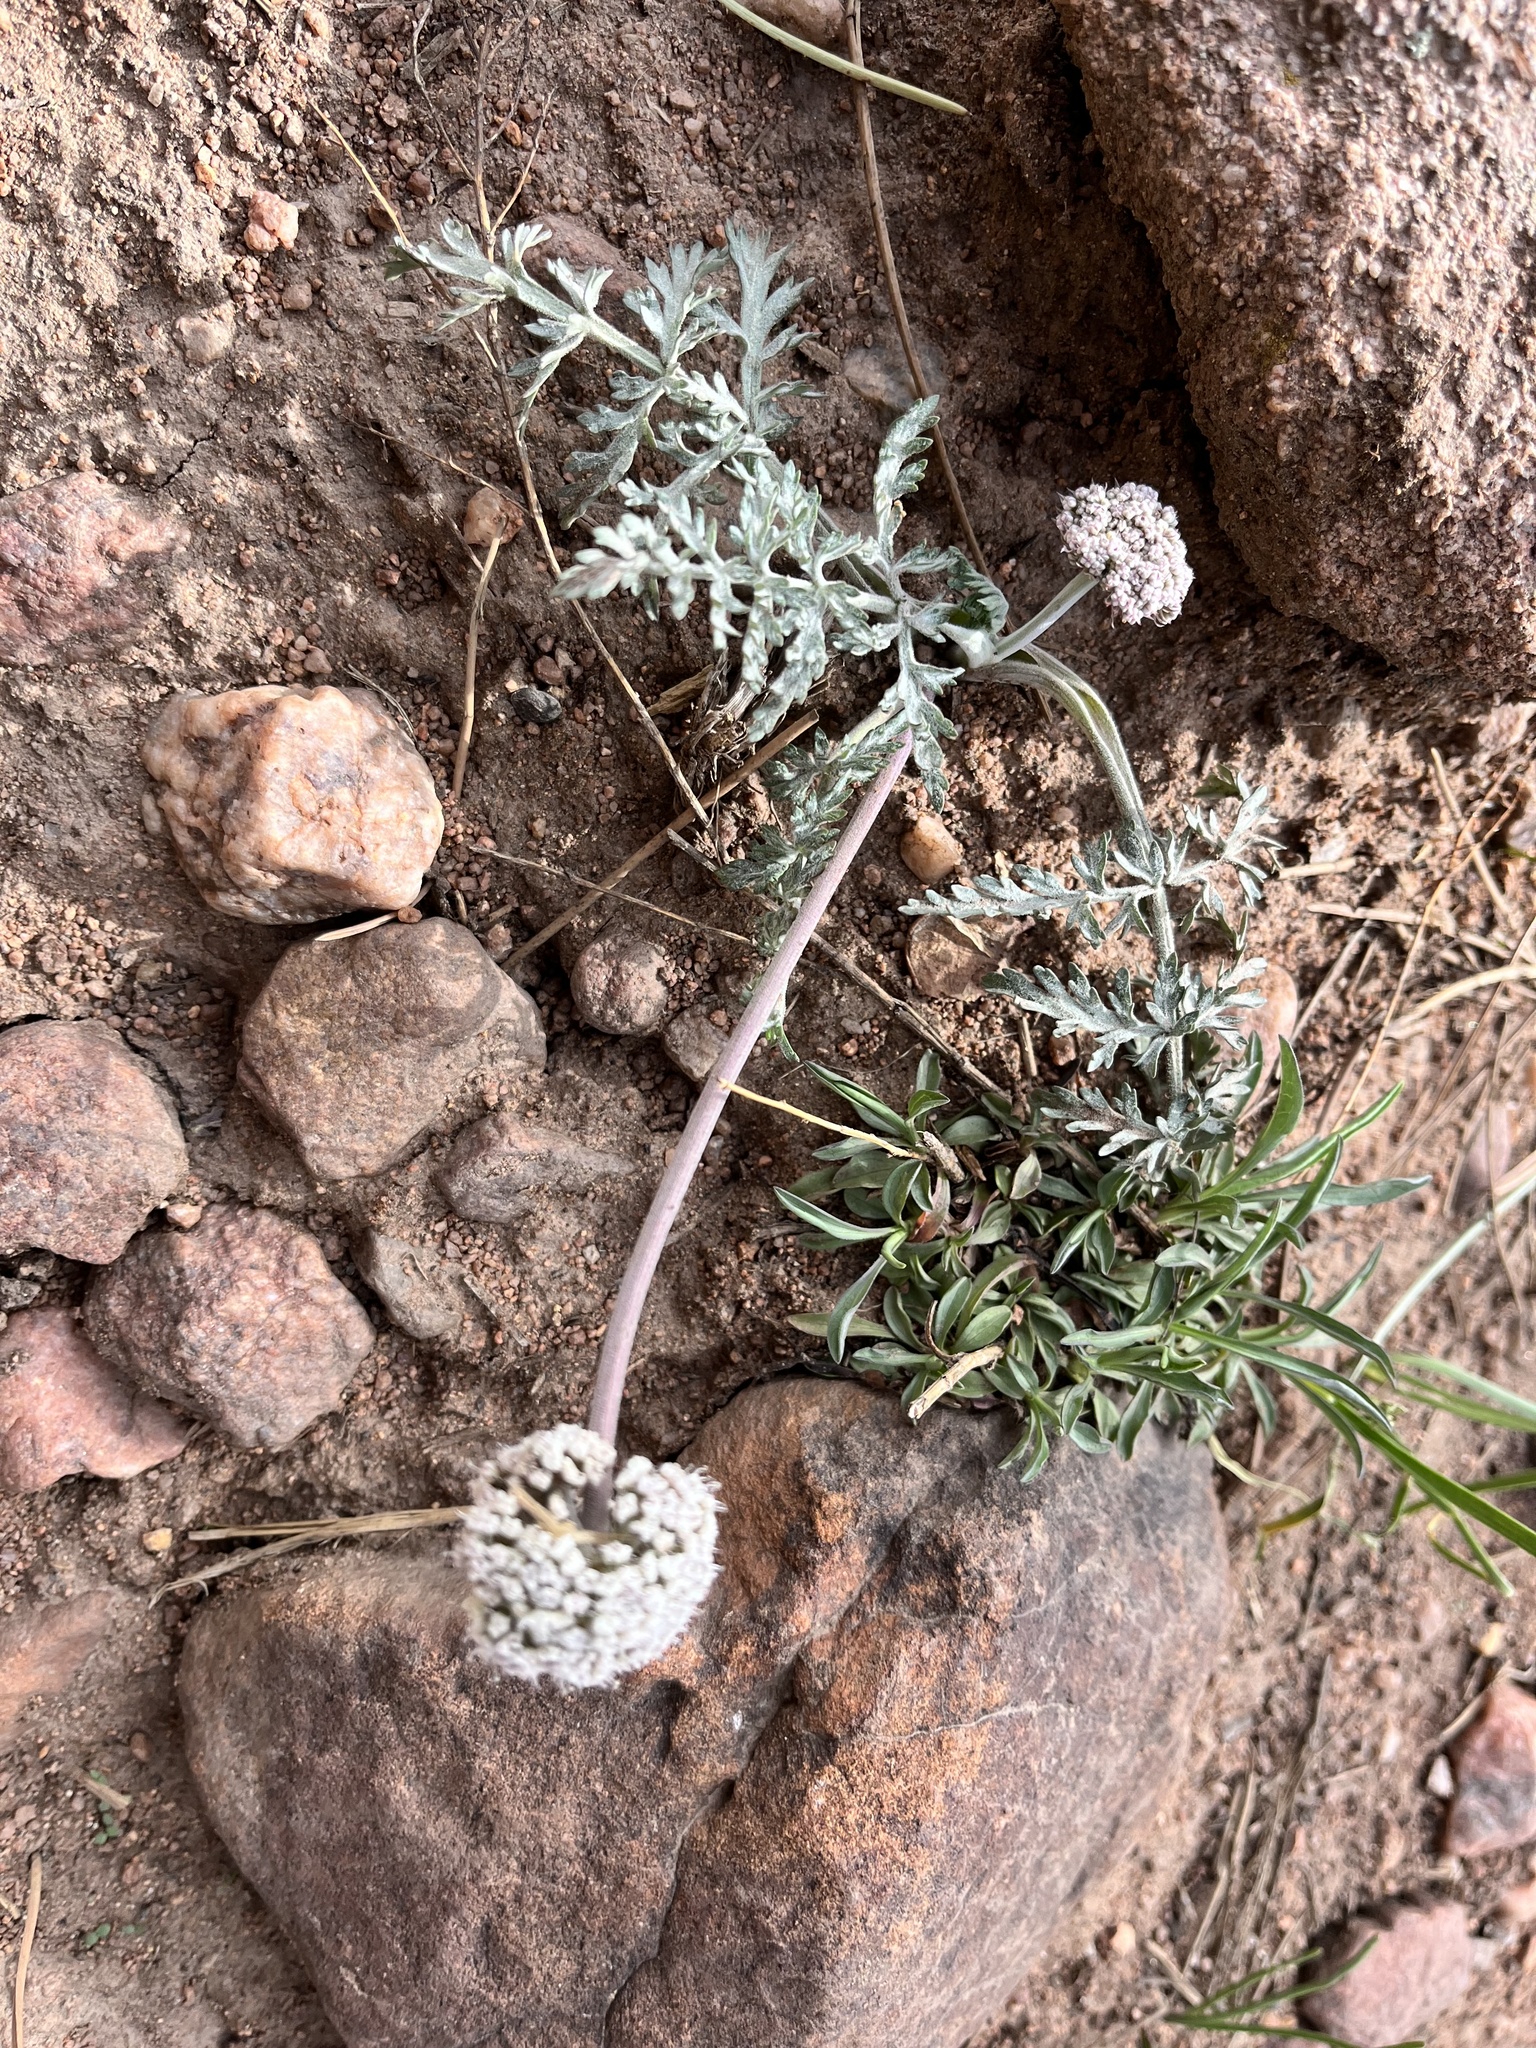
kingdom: Plantae
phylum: Tracheophyta
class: Magnoliopsida
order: Apiales
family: Apiaceae
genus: Lomatium
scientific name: Lomatium orientale
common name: Eastern cous
